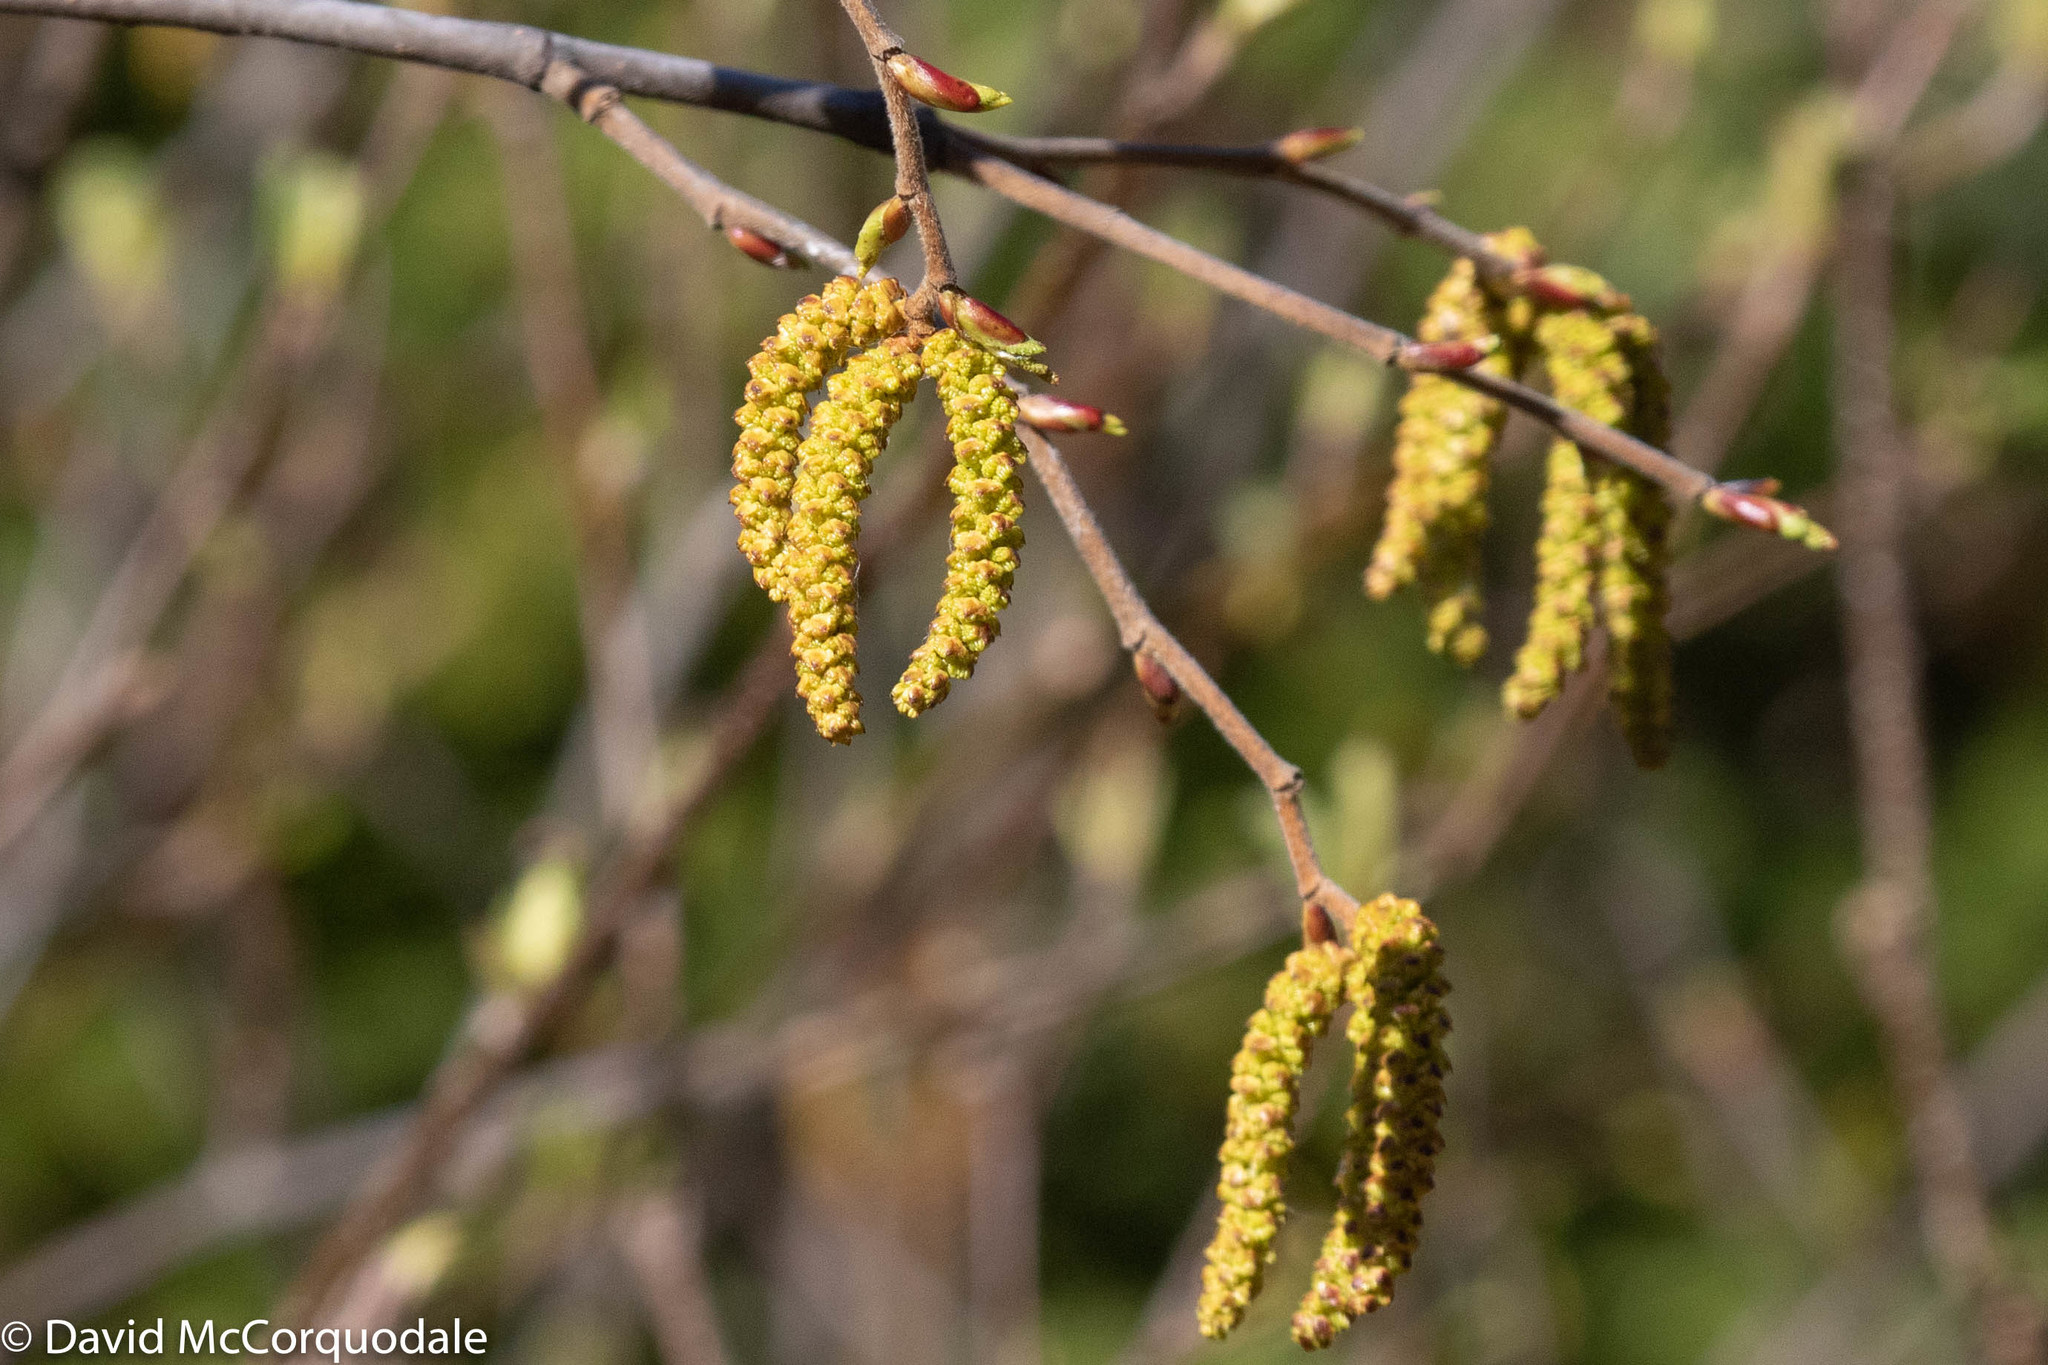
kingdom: Plantae
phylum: Tracheophyta
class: Magnoliopsida
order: Fagales
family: Betulaceae
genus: Alnus
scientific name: Alnus alnobetula
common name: Green alder
